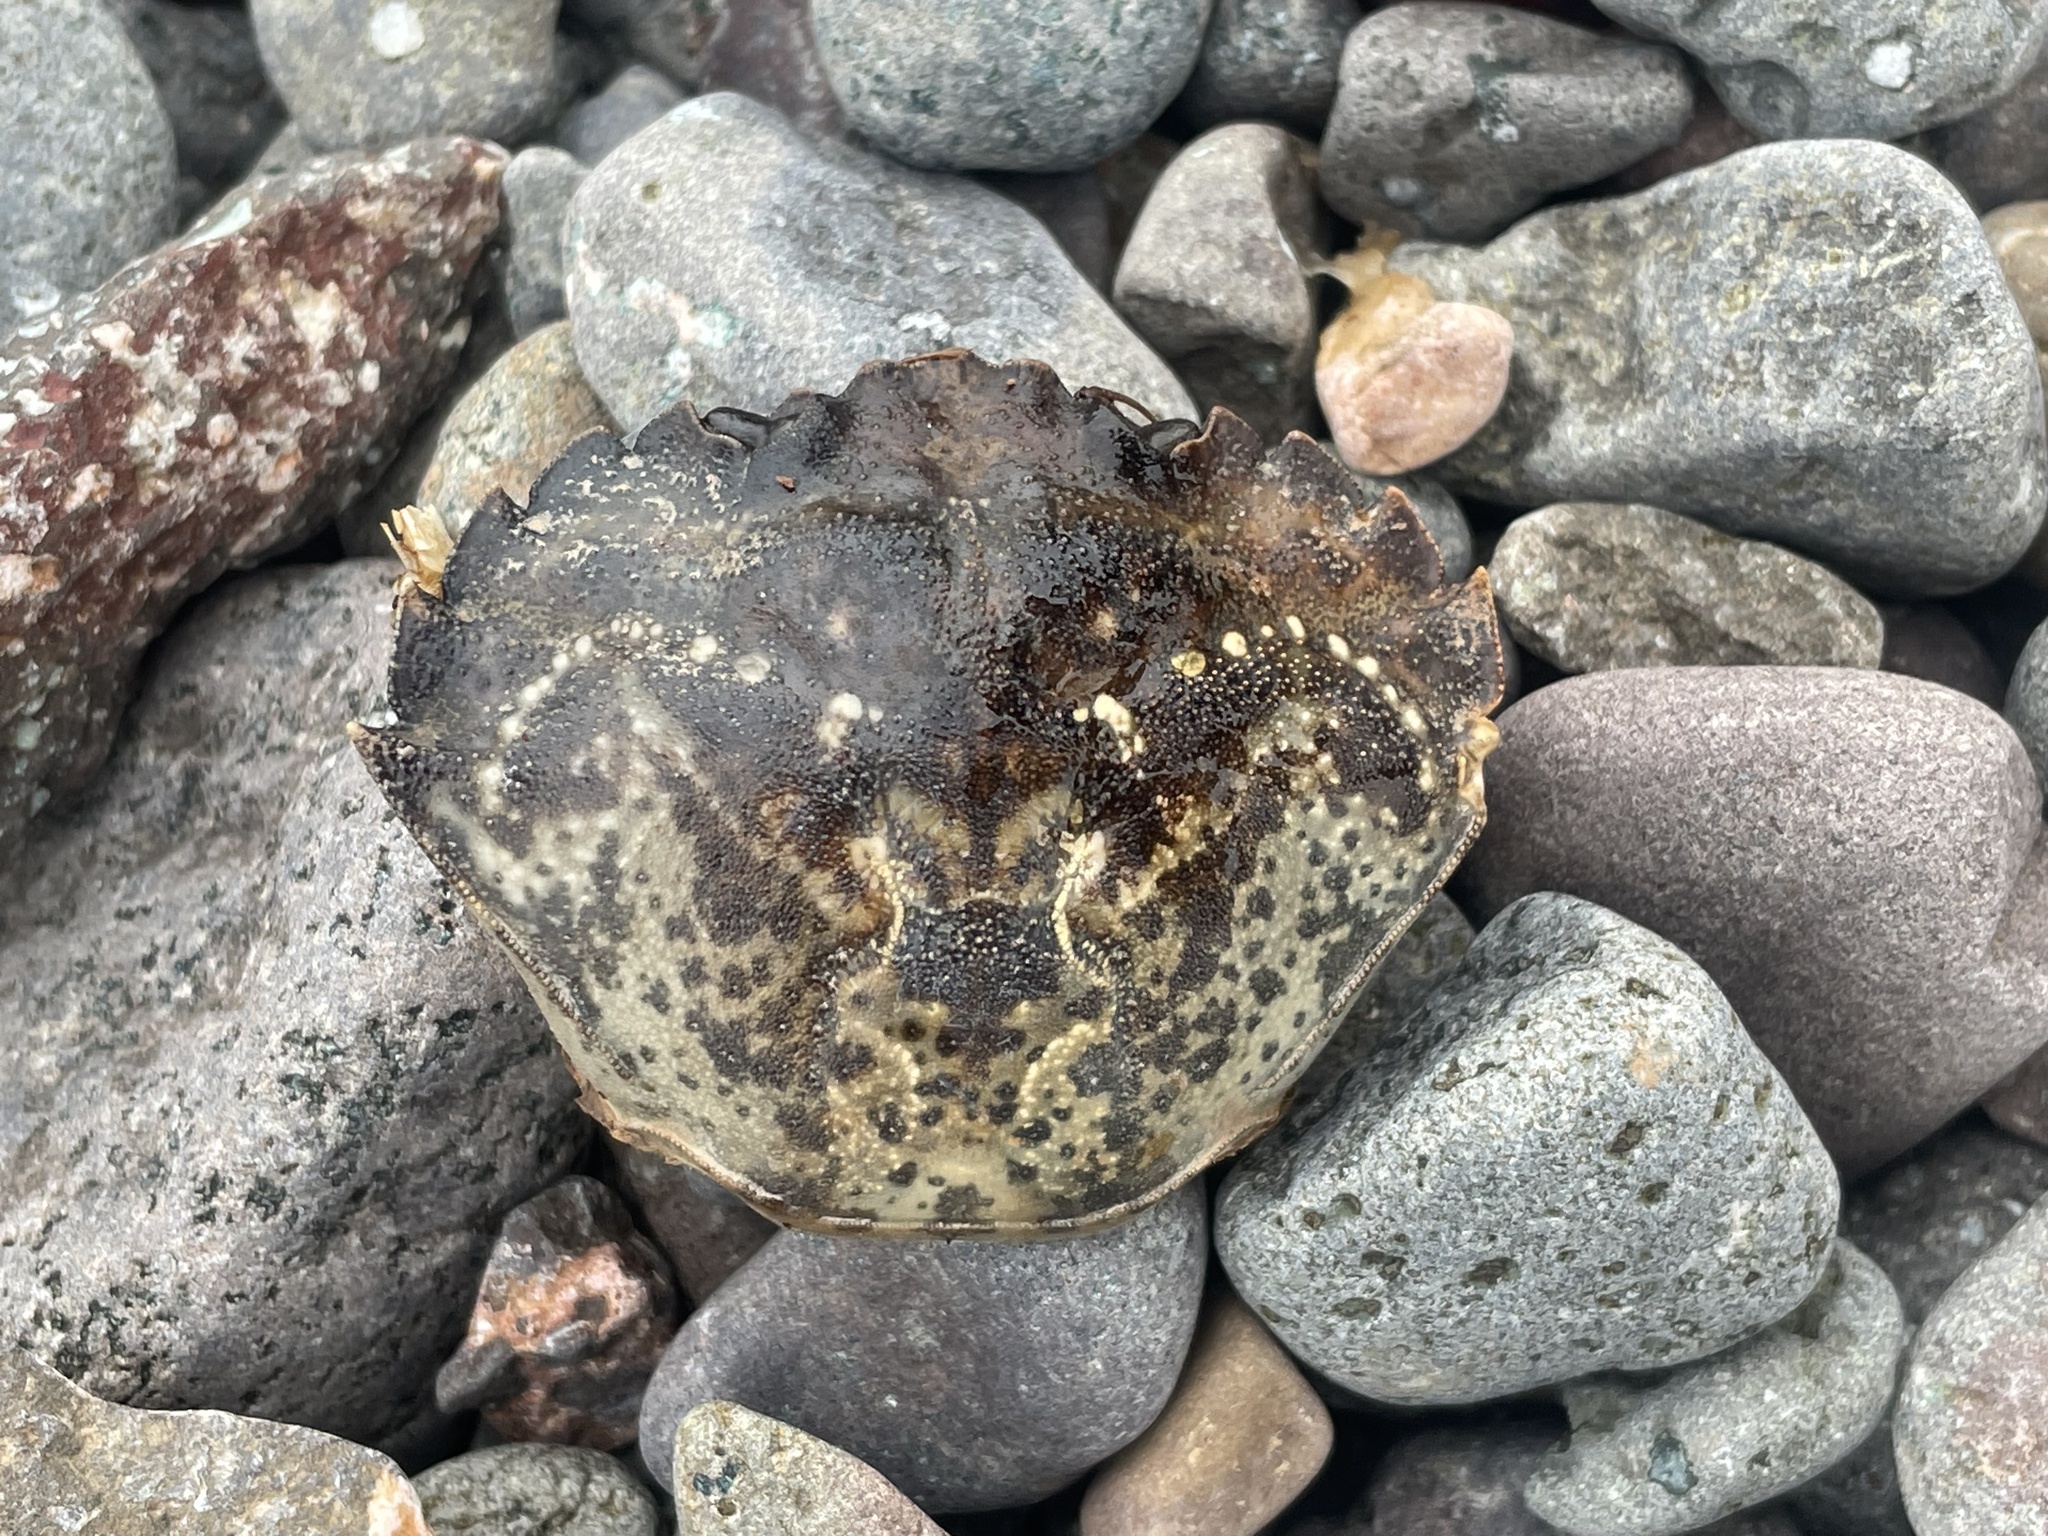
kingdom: Animalia
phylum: Arthropoda
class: Malacostraca
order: Decapoda
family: Carcinidae
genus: Carcinus
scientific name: Carcinus maenas
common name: European green crab
